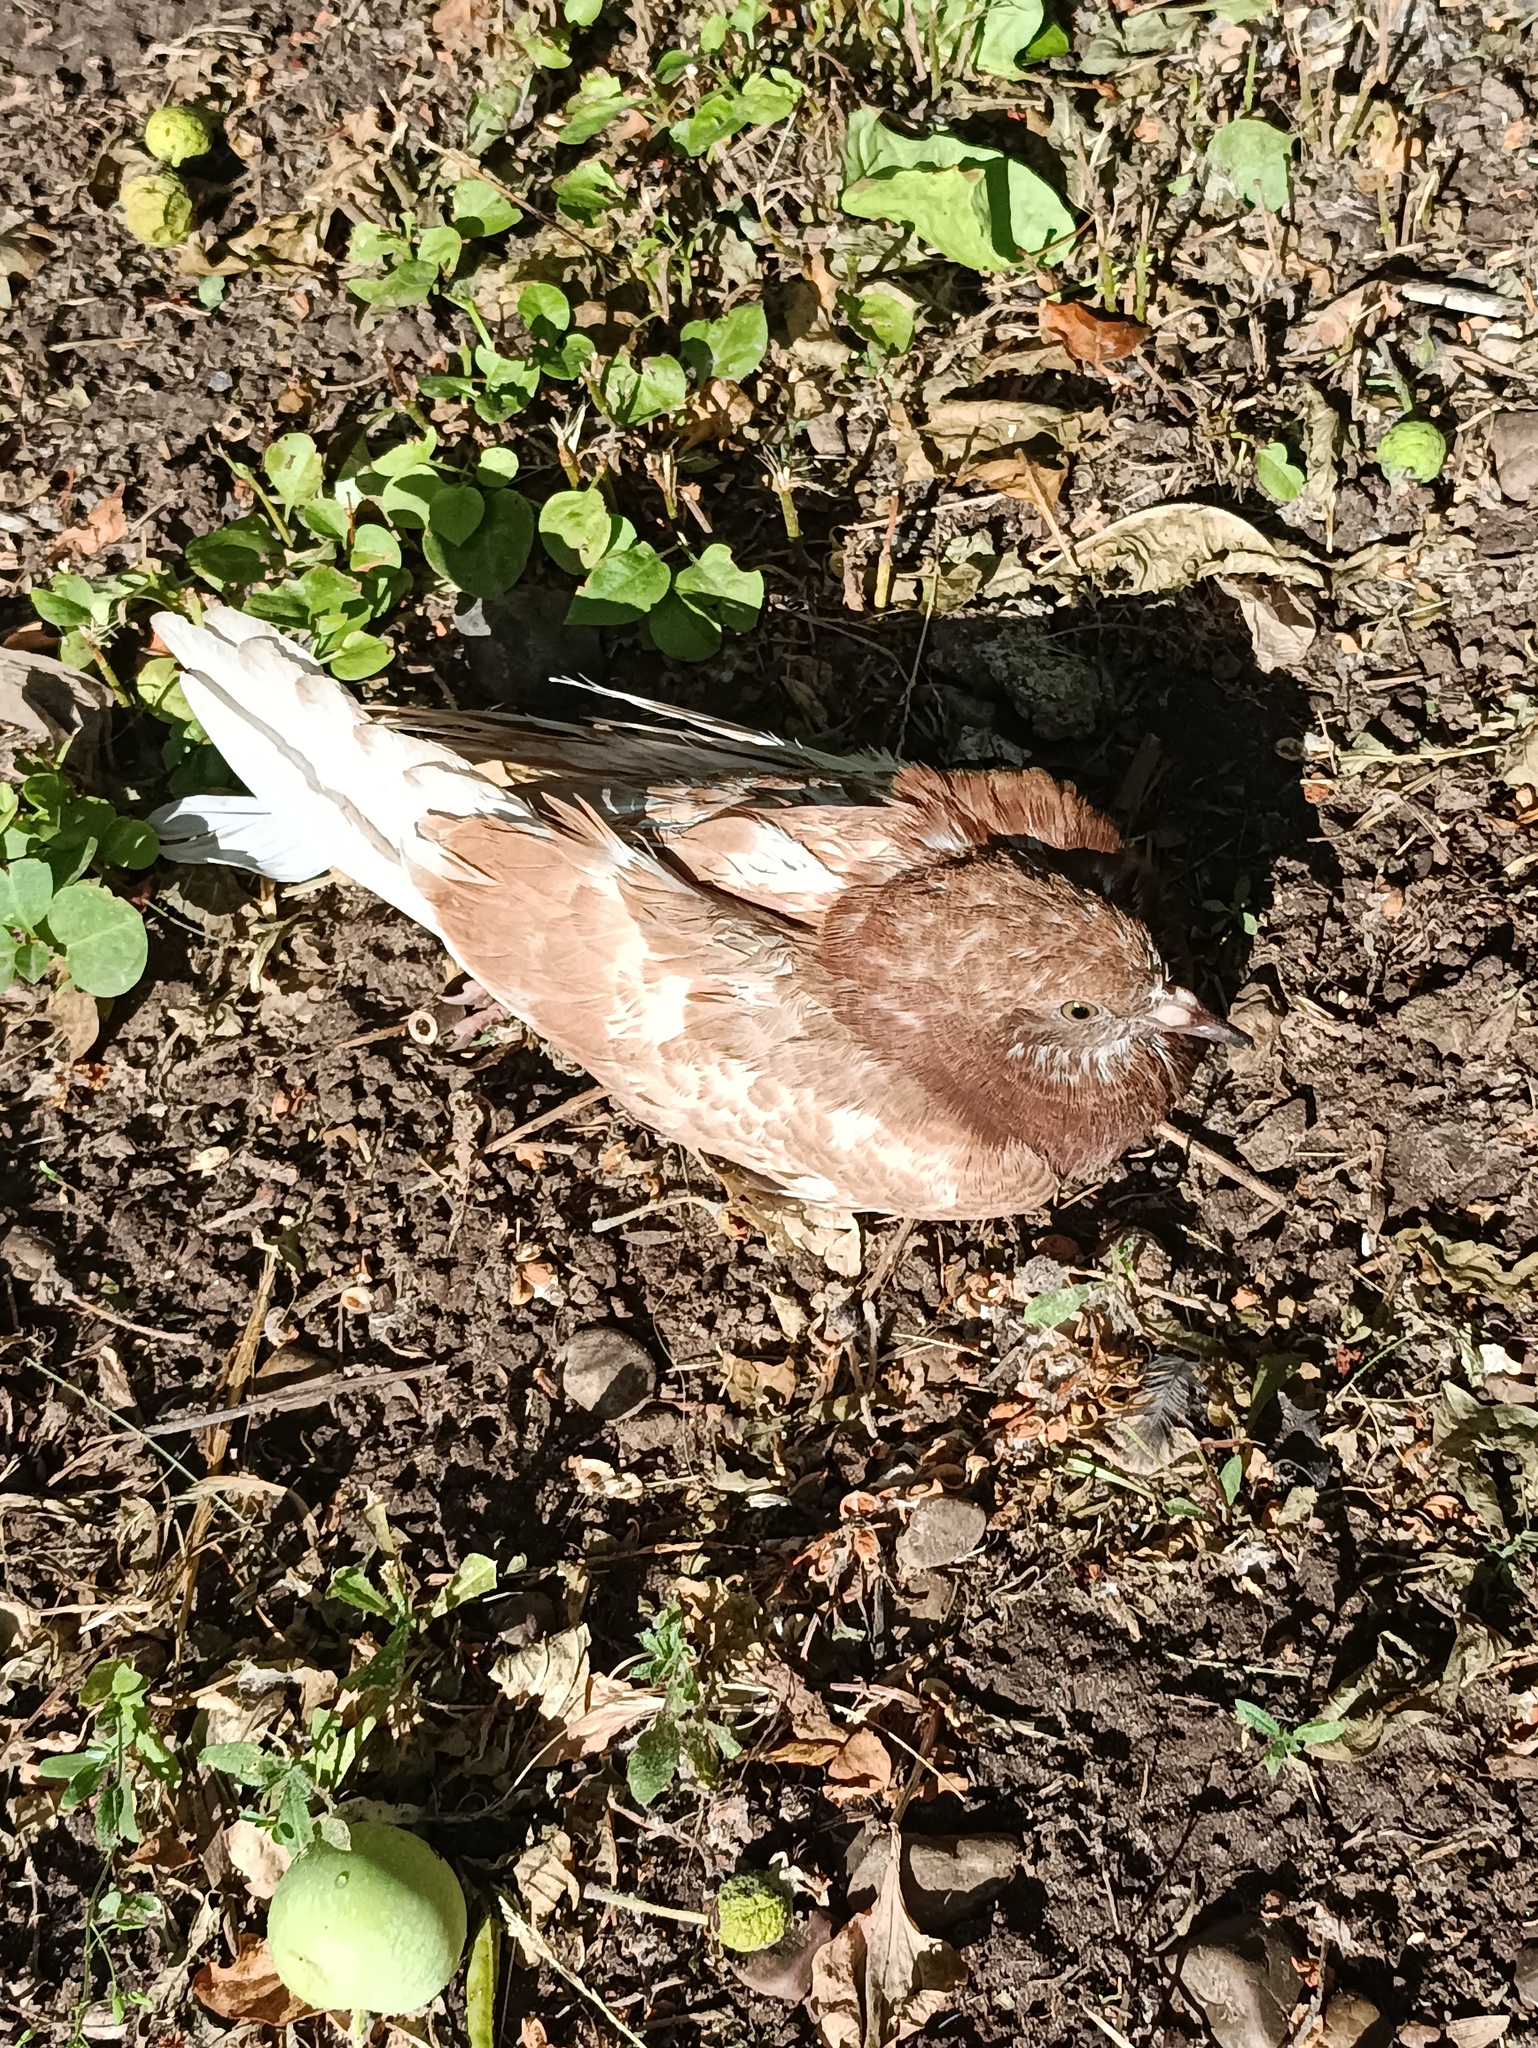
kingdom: Animalia
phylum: Chordata
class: Aves
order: Columbiformes
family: Columbidae
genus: Columba
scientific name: Columba livia
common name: Rock pigeon
